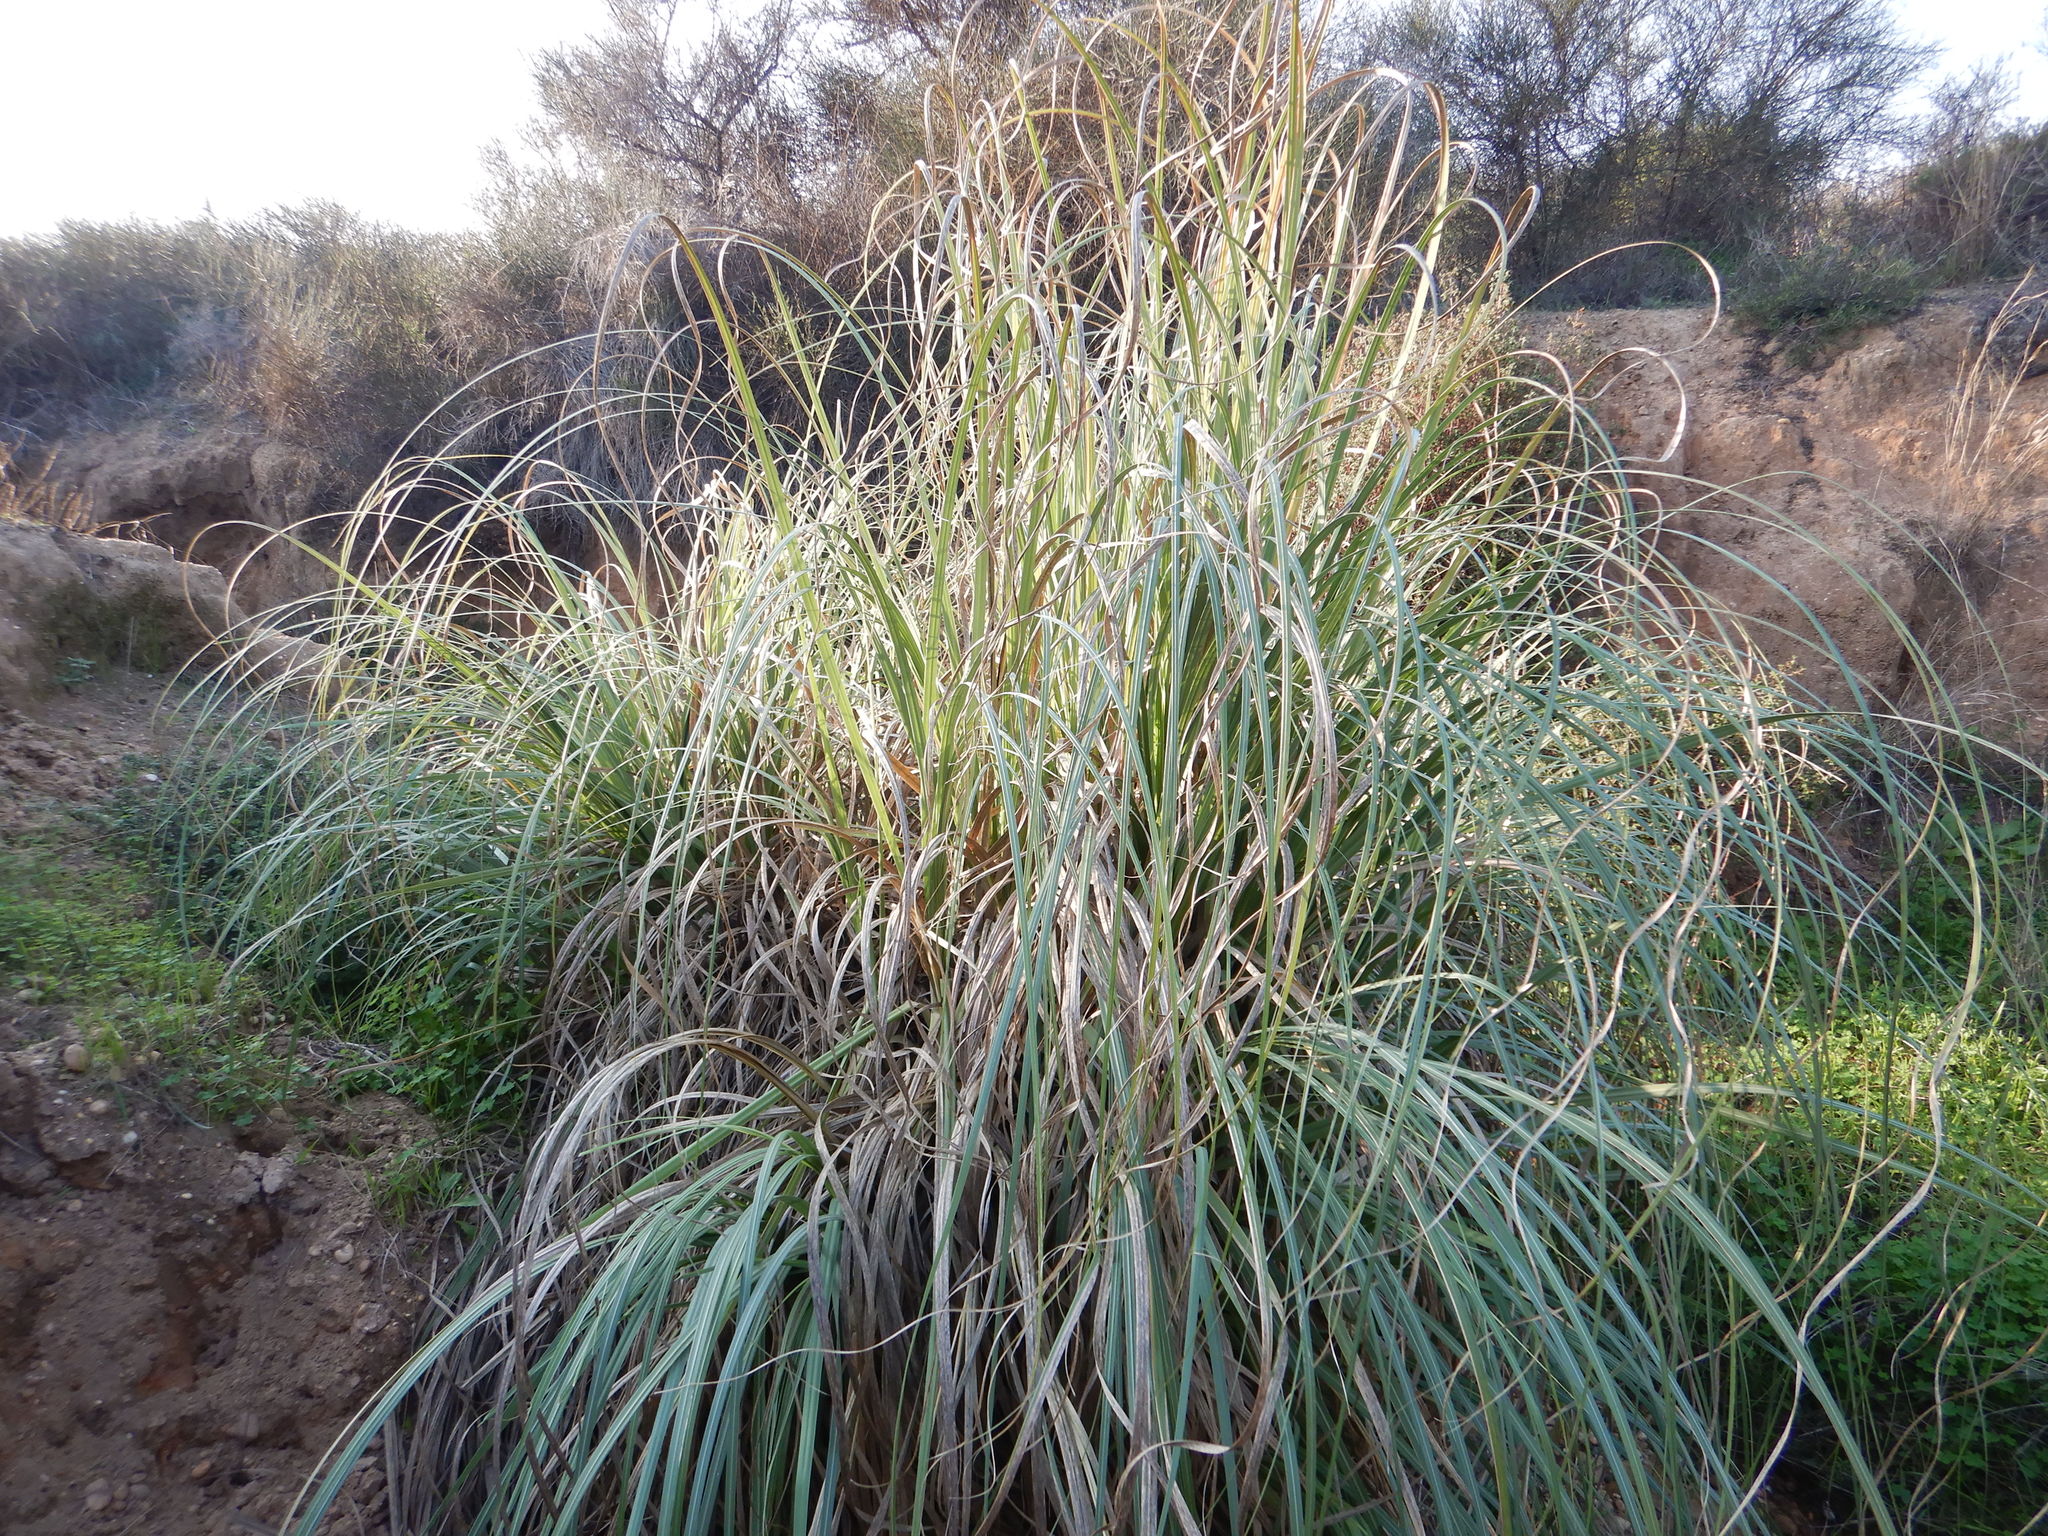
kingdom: Plantae
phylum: Tracheophyta
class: Liliopsida
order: Poales
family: Poaceae
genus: Cortaderia
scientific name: Cortaderia selloana
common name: Uruguayan pampas grass
